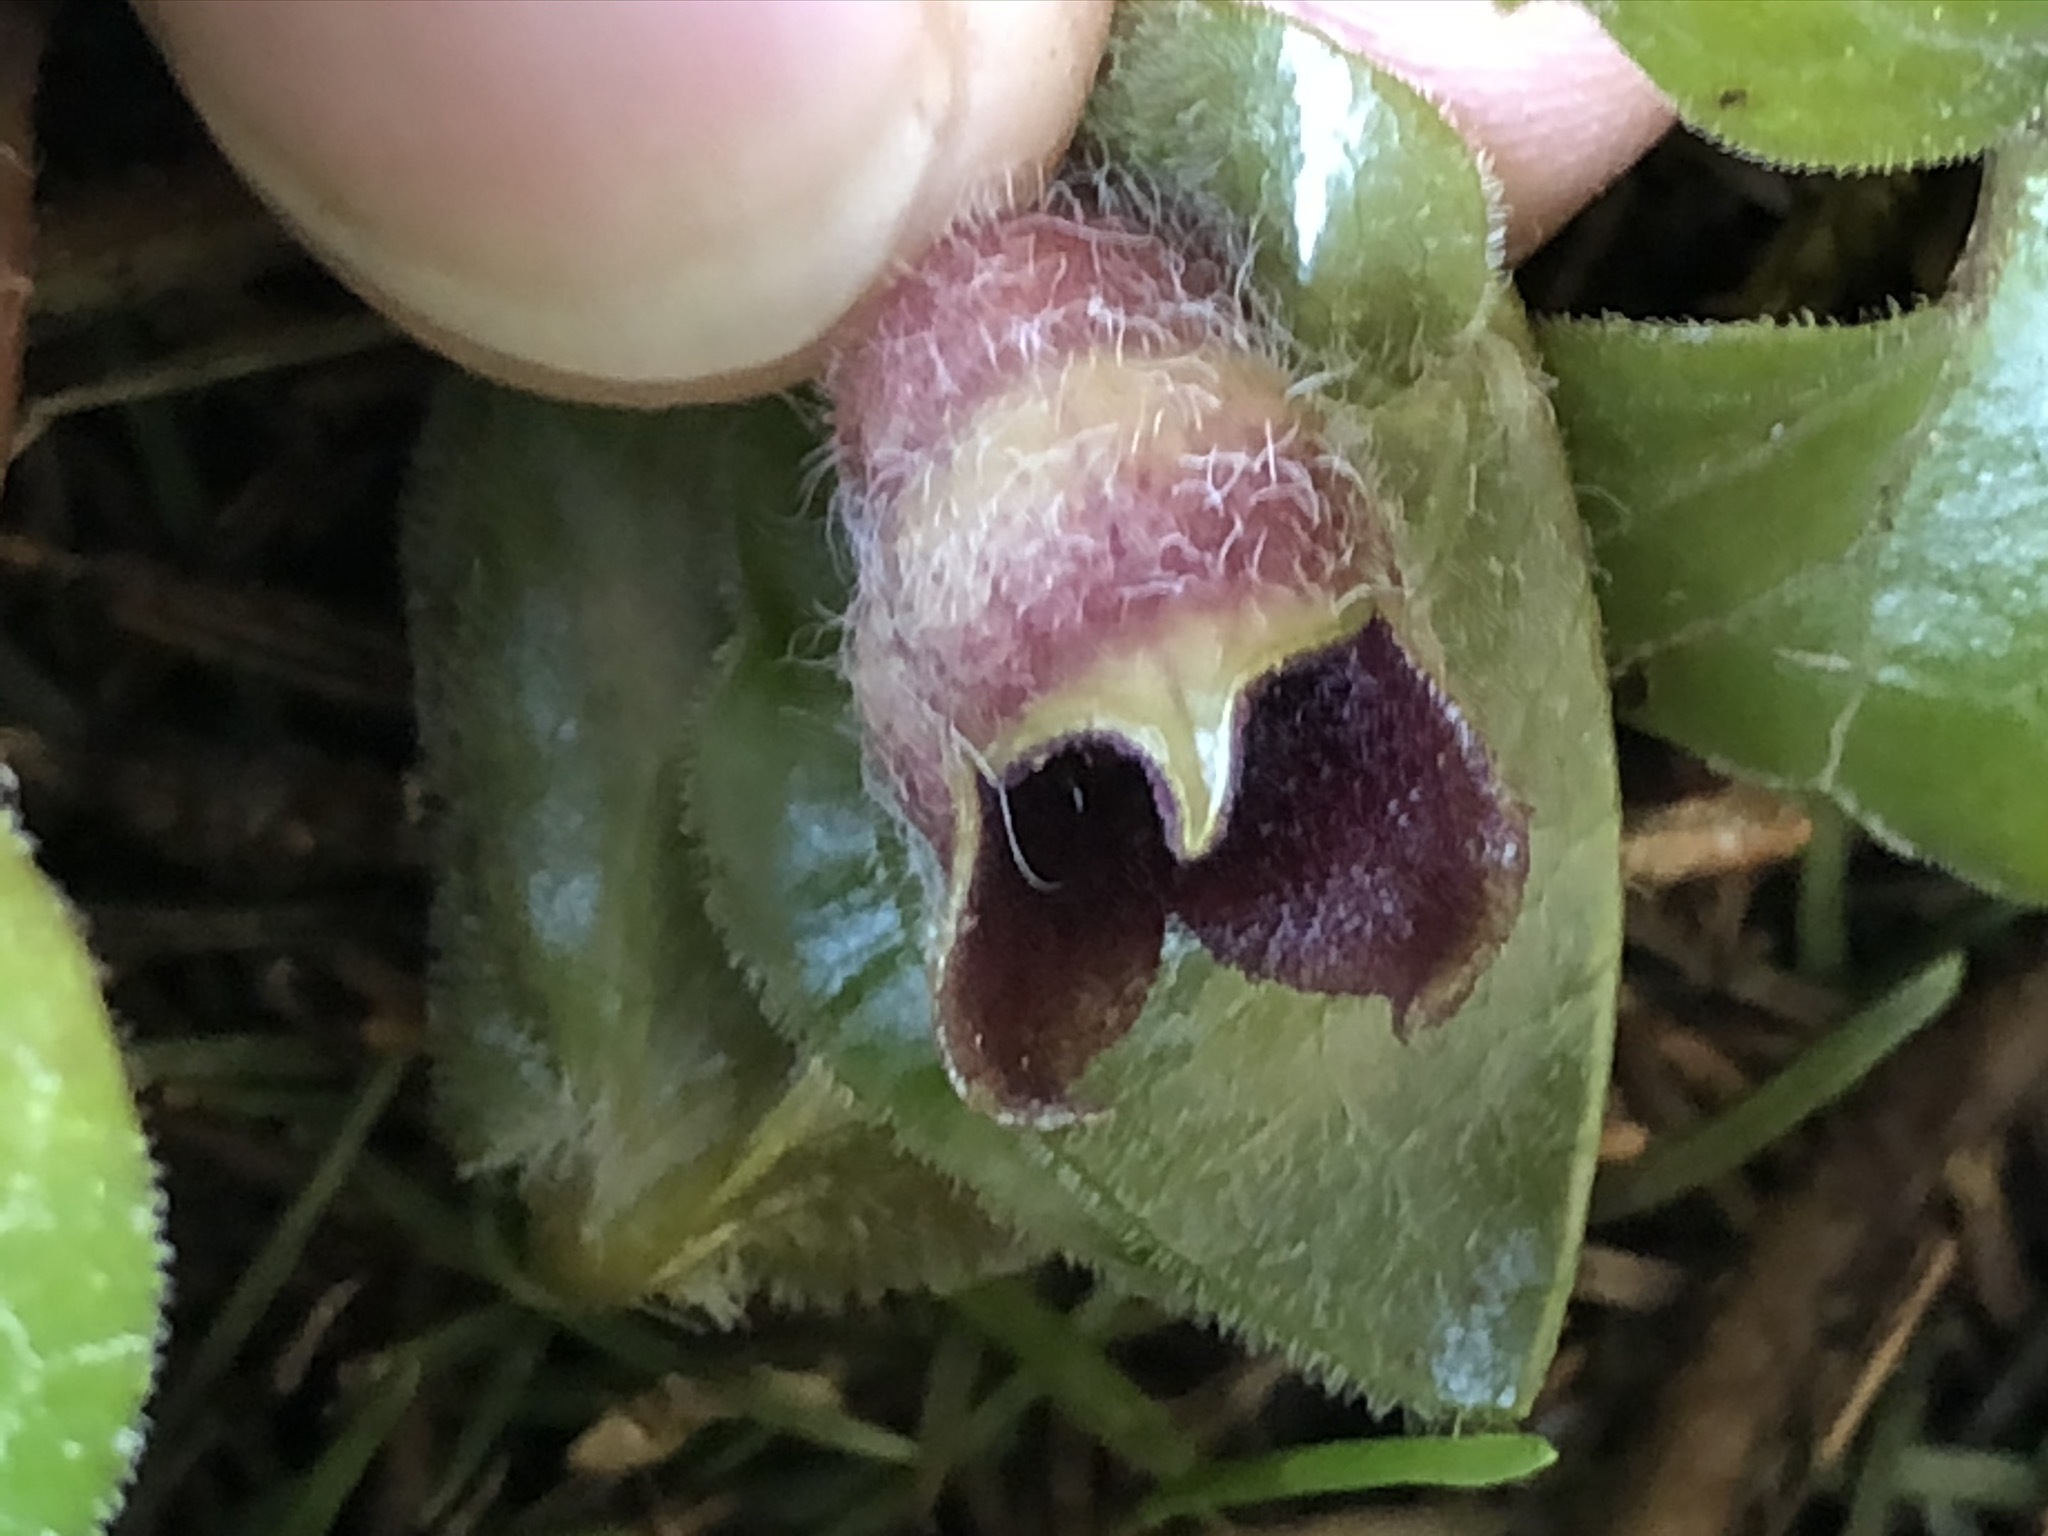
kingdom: Plantae
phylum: Tracheophyta
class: Magnoliopsida
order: Piperales
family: Aristolochiaceae
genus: Asarum
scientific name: Asarum europaeum
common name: Asarabacca
